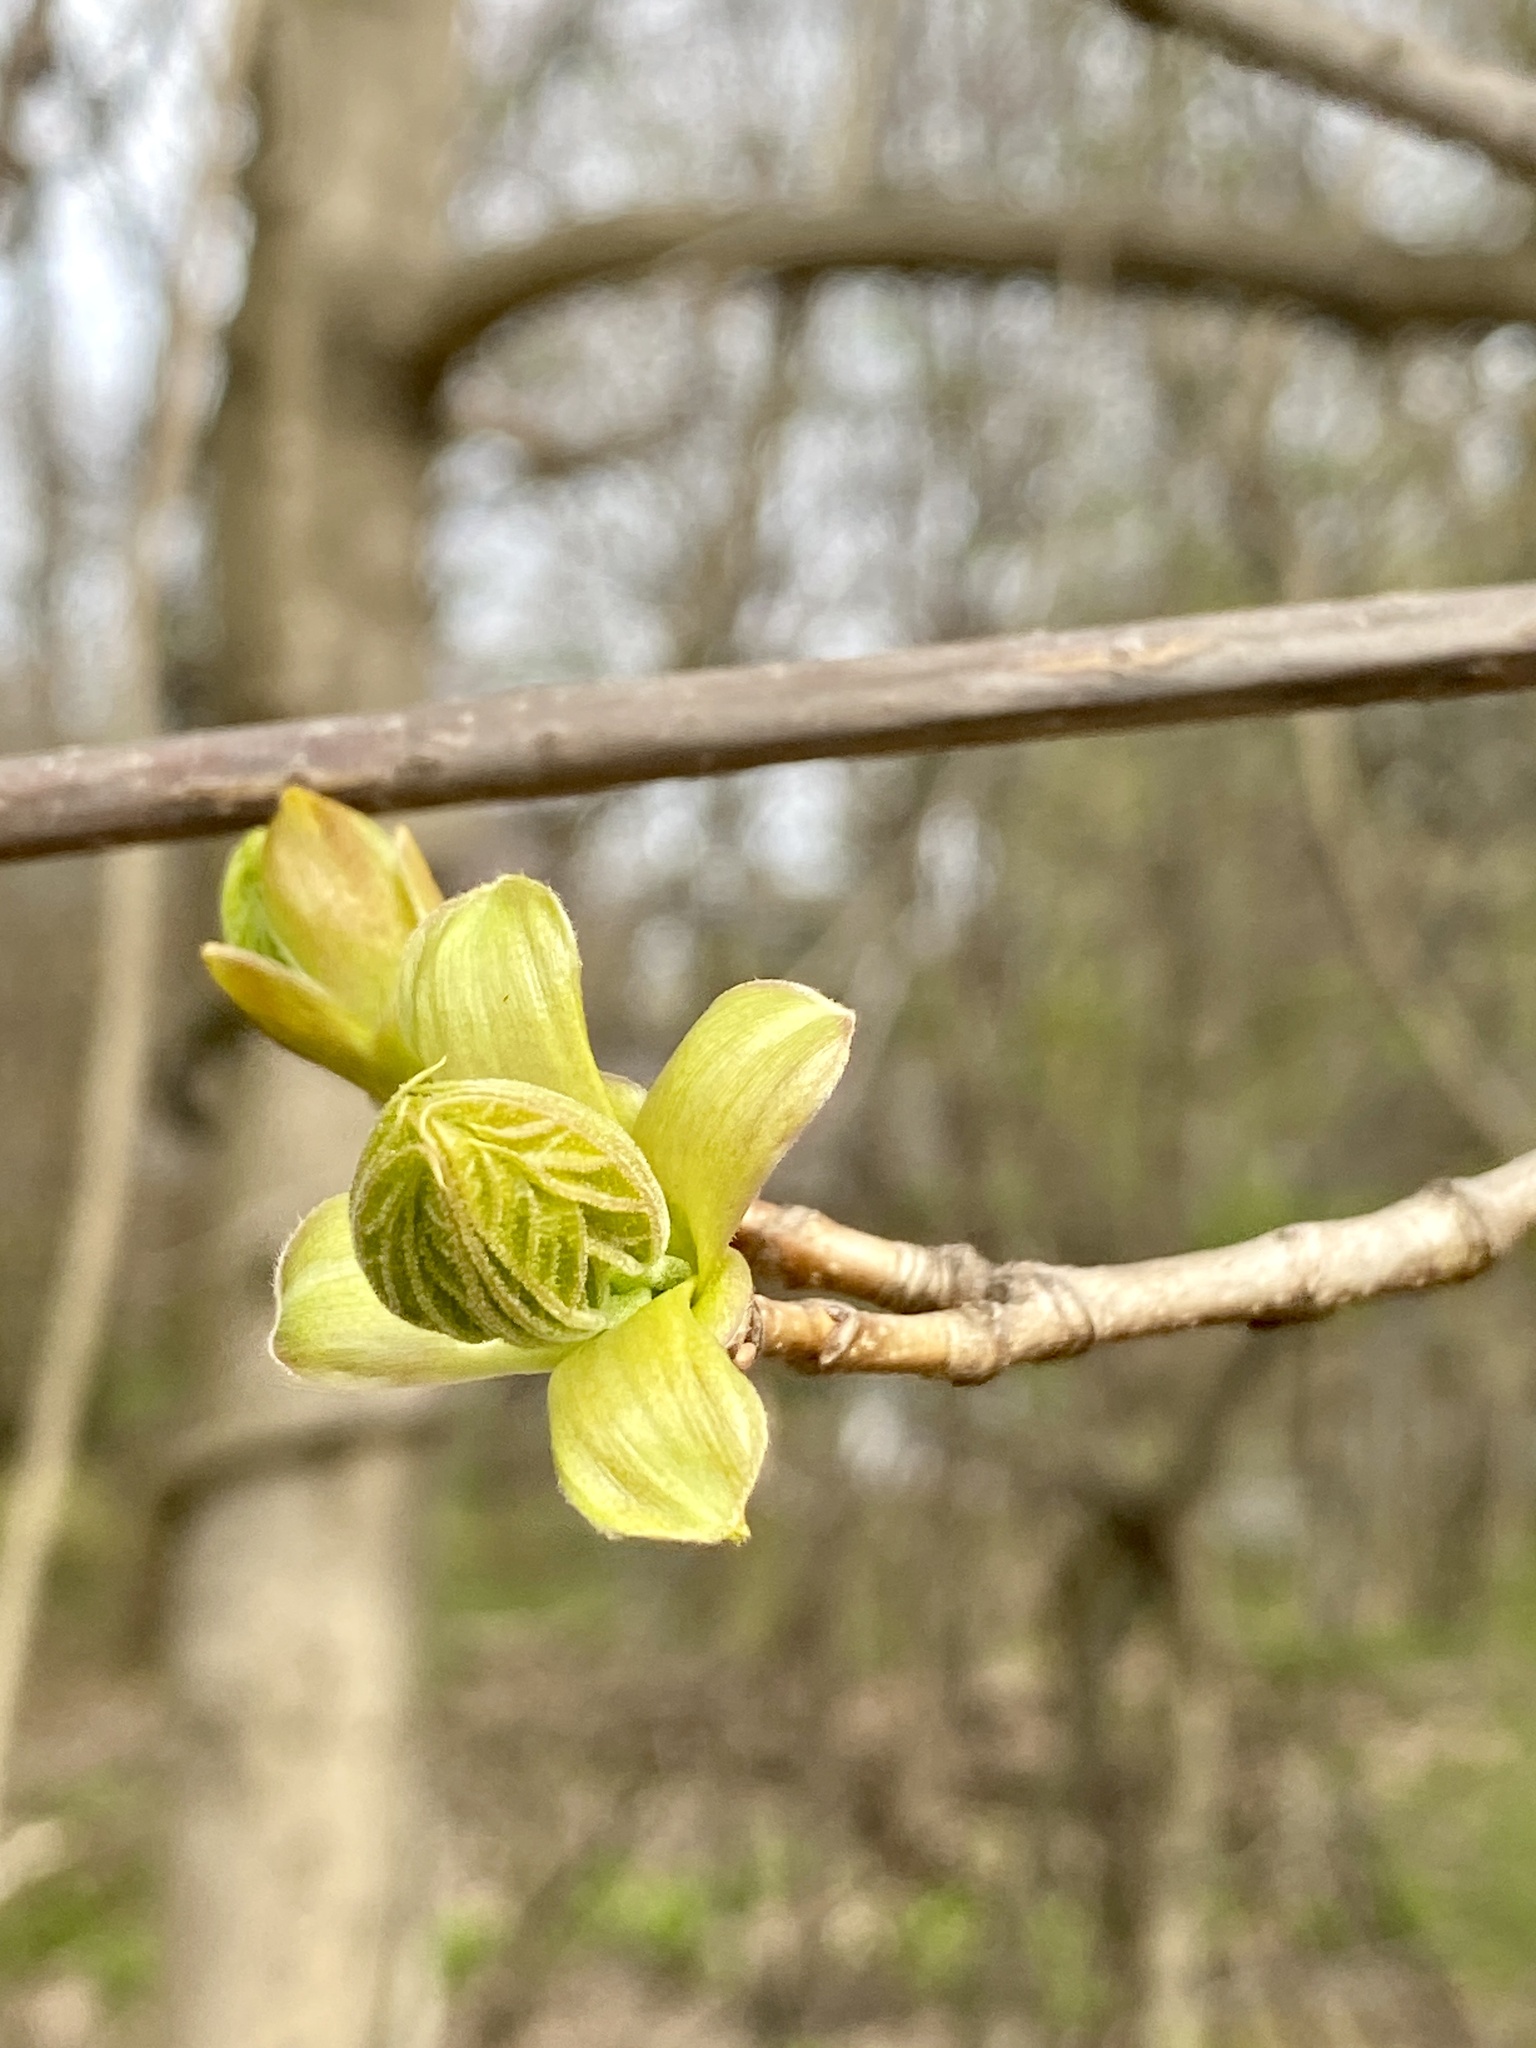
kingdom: Plantae
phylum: Tracheophyta
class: Magnoliopsida
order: Sapindales
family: Sapindaceae
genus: Acer
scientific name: Acer platanoides
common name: Norway maple
